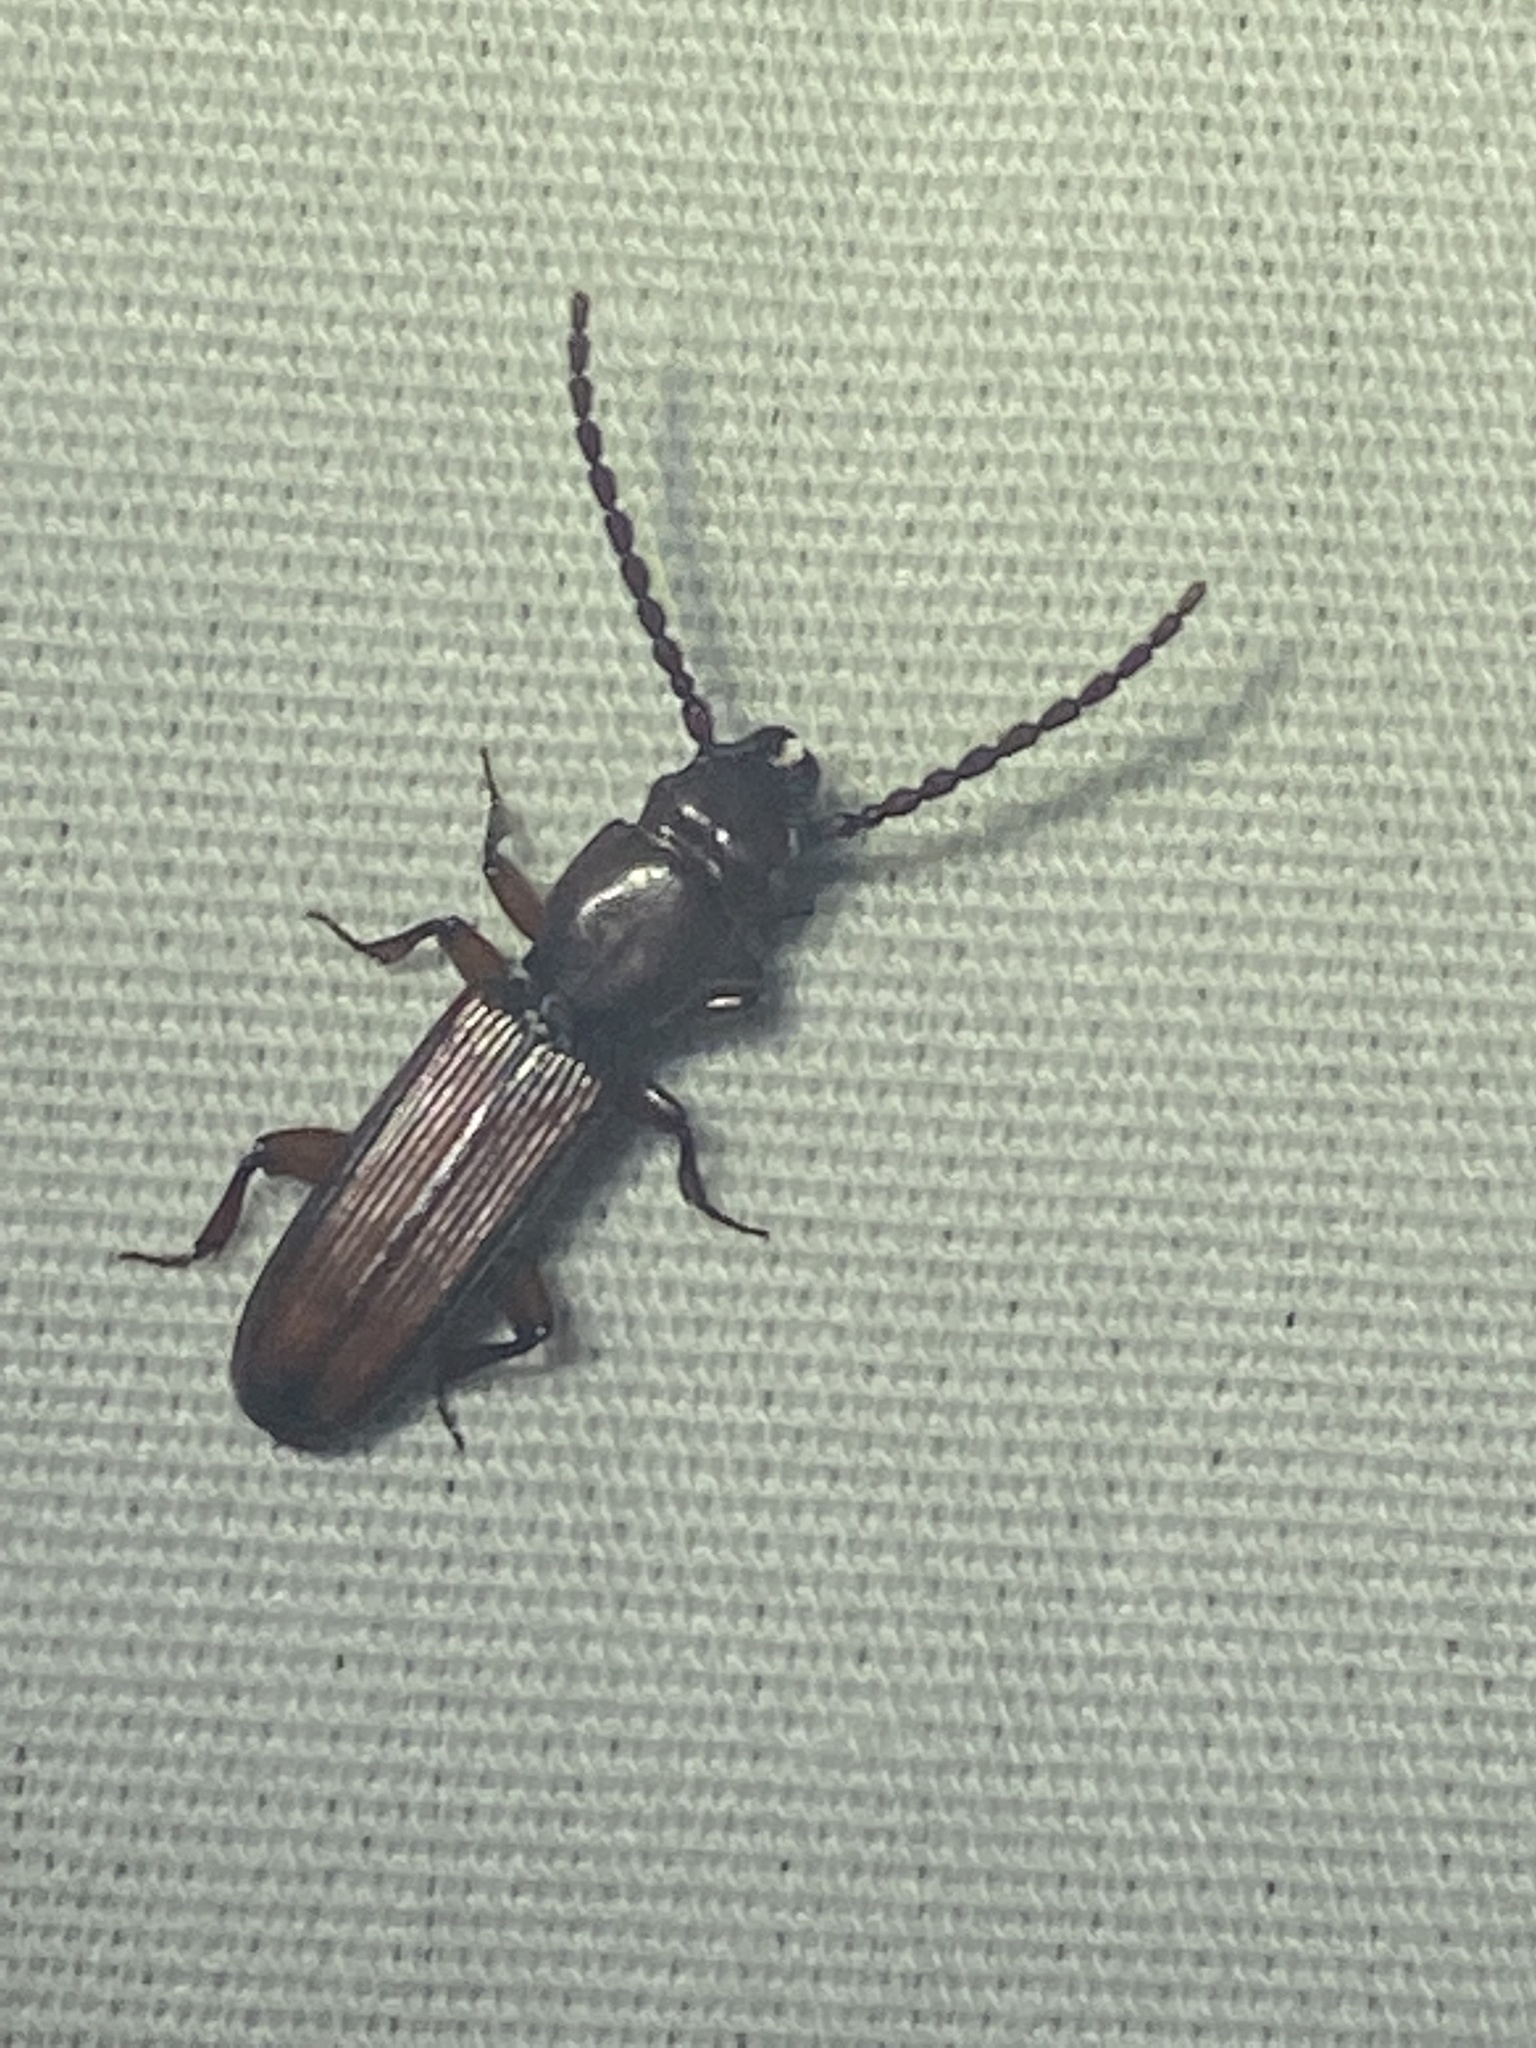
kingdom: Animalia
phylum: Arthropoda
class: Insecta
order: Coleoptera
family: Passandridae
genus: Catogenus
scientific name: Catogenus rufus
